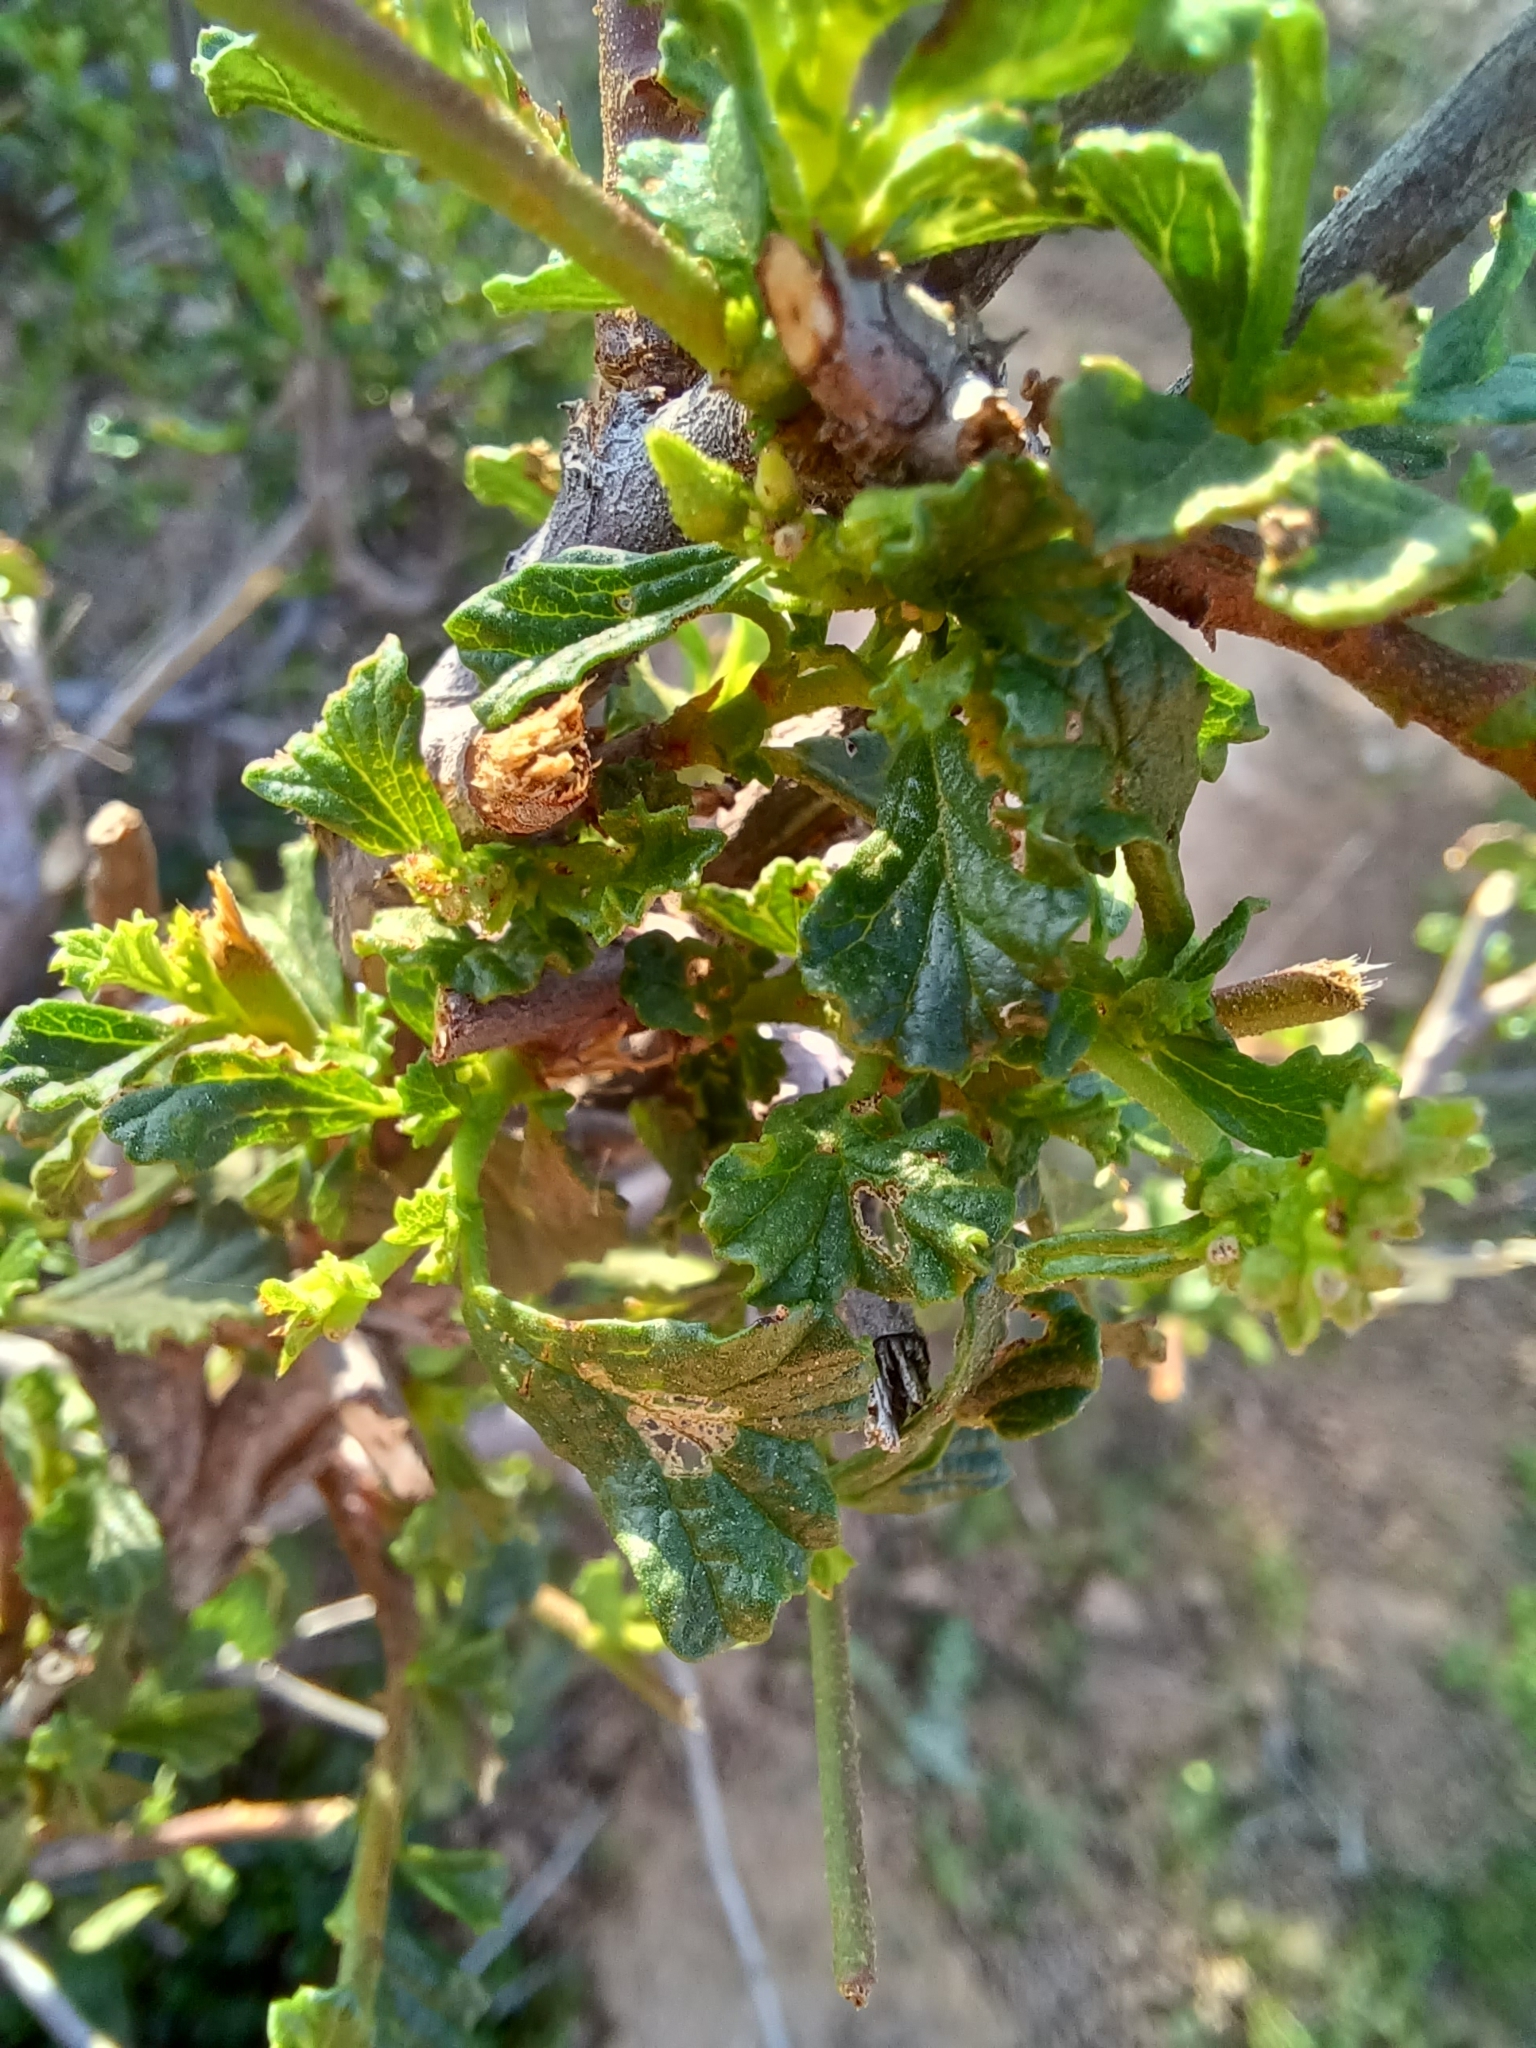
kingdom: Plantae
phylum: Tracheophyta
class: Magnoliopsida
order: Malvales
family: Malvaceae
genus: Hermannia
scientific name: Hermannia alnifolia
